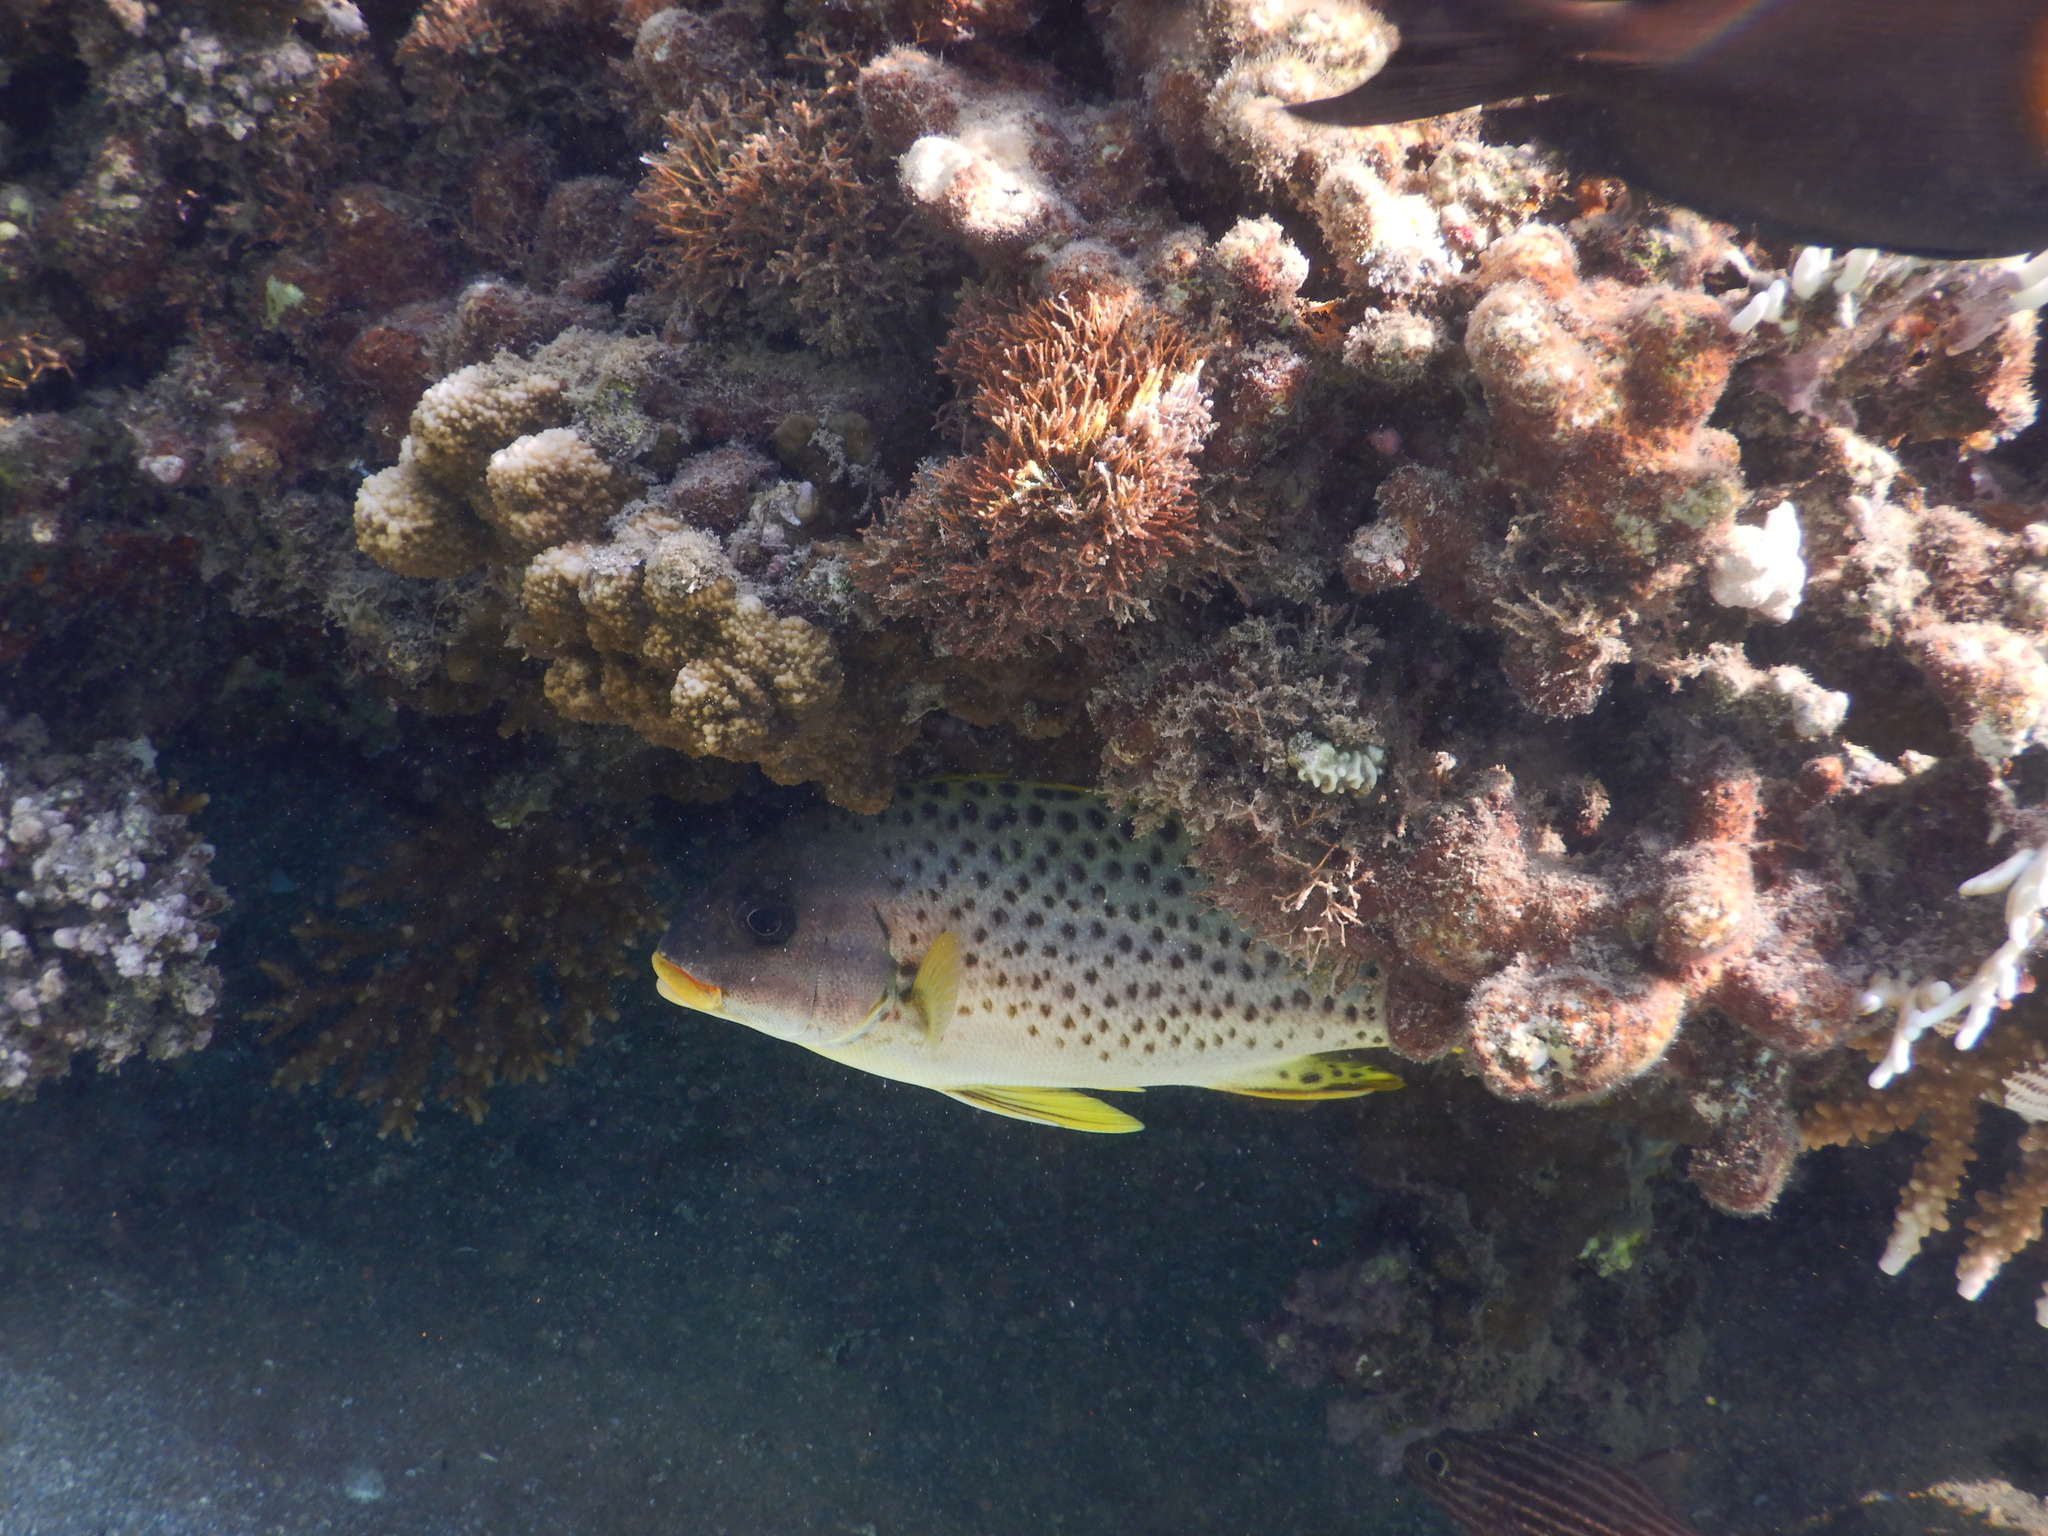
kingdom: Animalia
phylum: Chordata
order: Perciformes
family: Haemulidae
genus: Plectorhinchus
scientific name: Plectorhinchus gaterinus
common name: Blackspotted rubberlip
